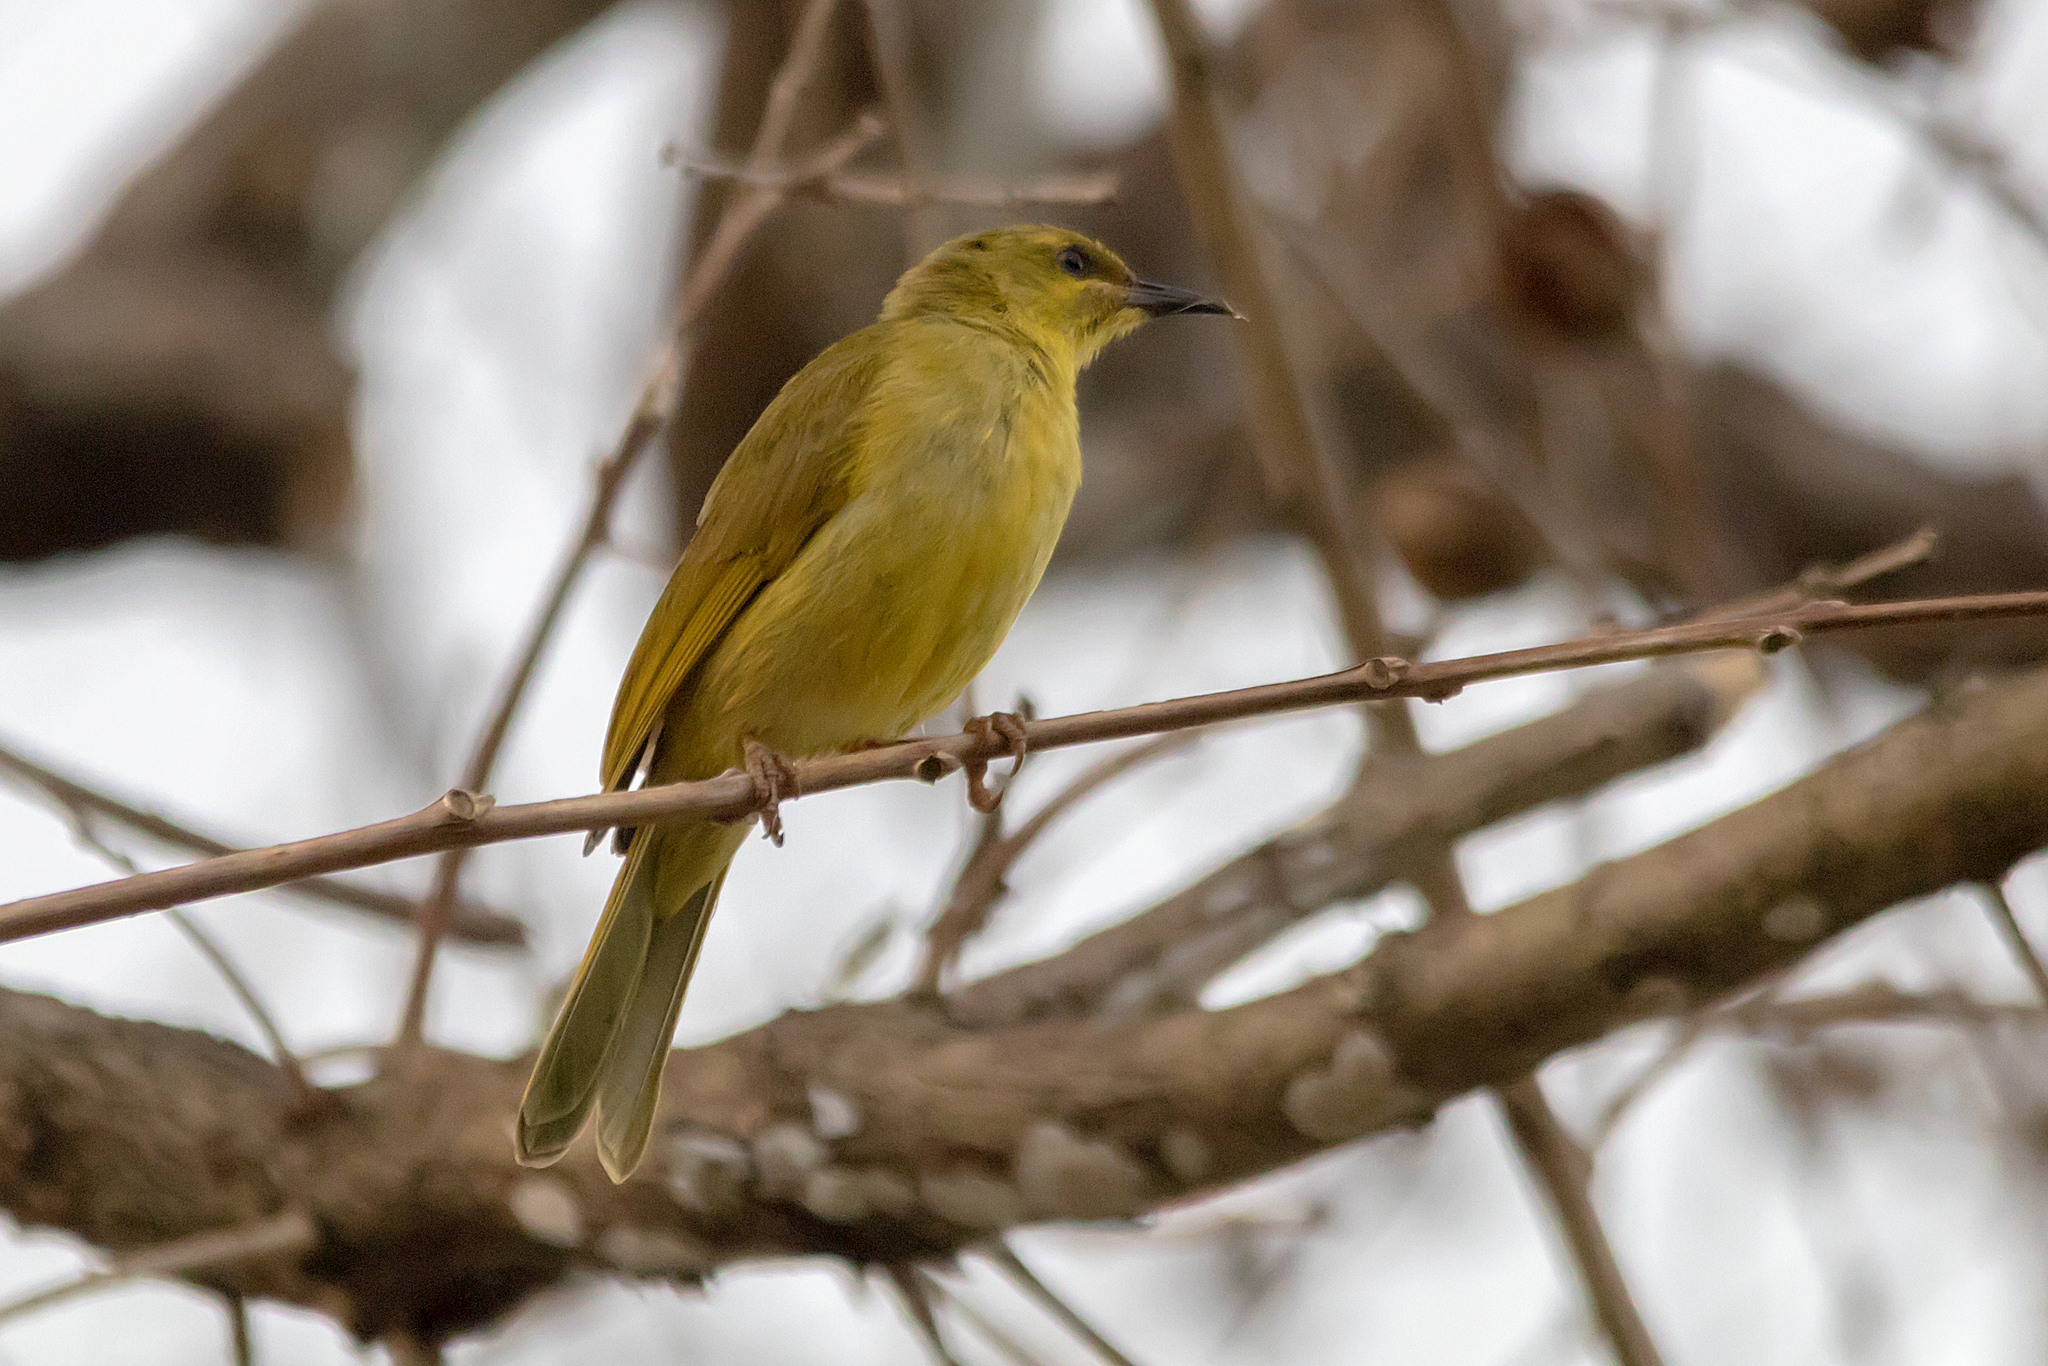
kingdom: Animalia
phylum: Chordata
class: Aves
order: Passeriformes
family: Meliphagidae
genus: Stomiopera
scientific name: Stomiopera flava
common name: Yellow honeyeater
